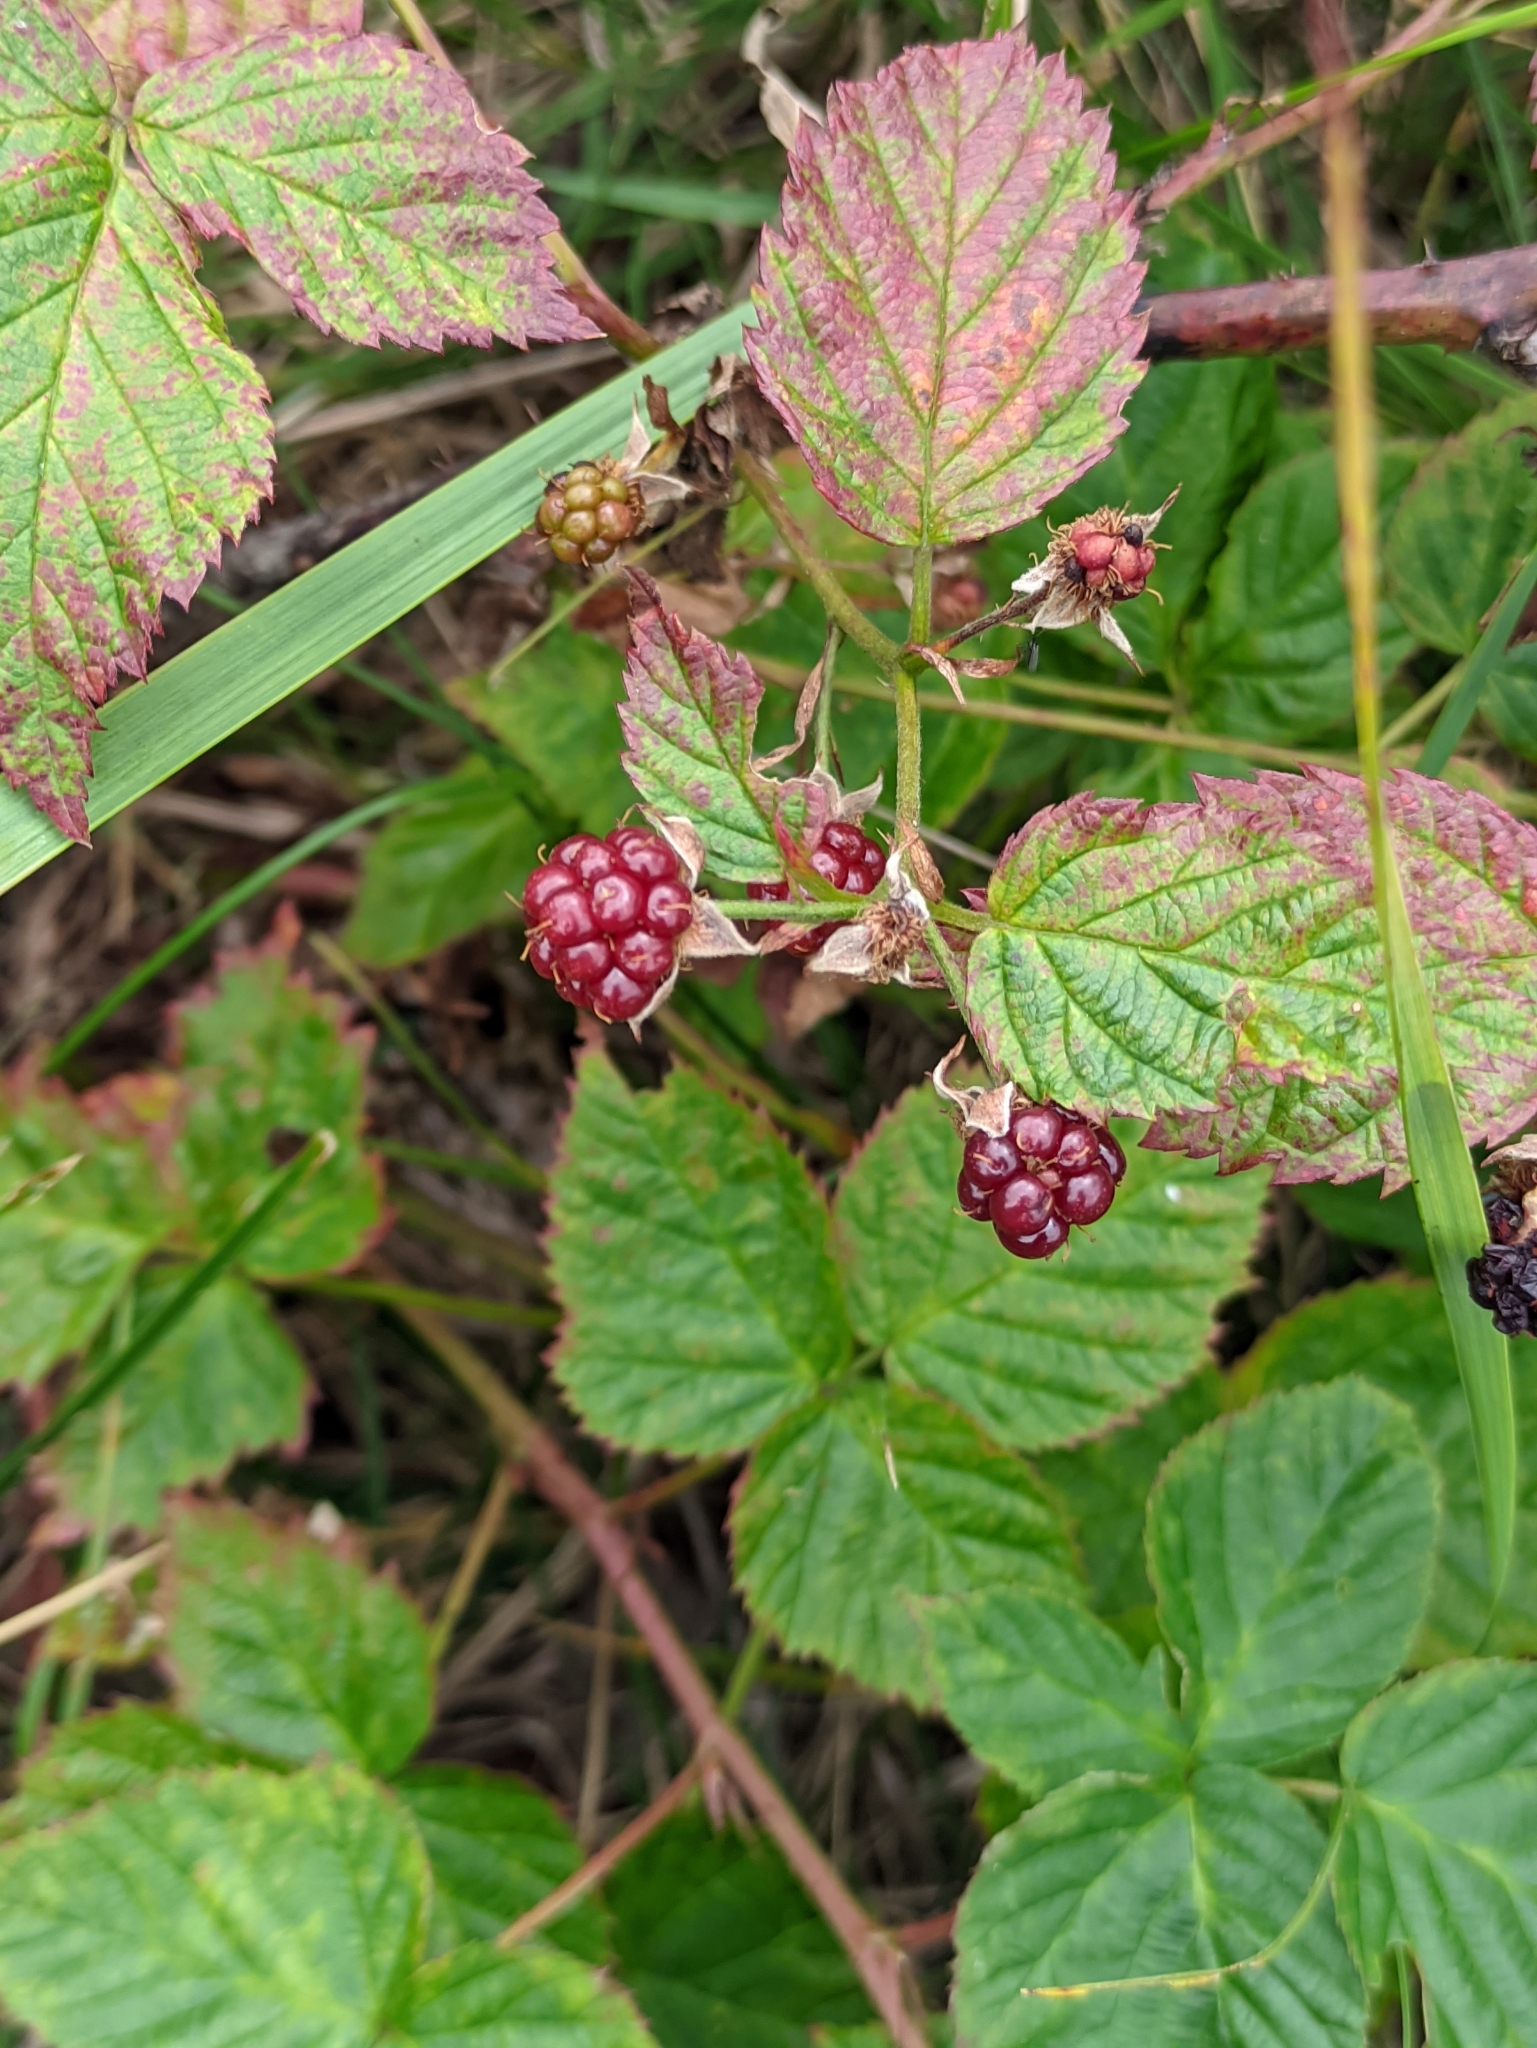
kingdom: Plantae
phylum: Tracheophyta
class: Magnoliopsida
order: Rosales
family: Rosaceae
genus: Rubus
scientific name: Rubus polonicus
